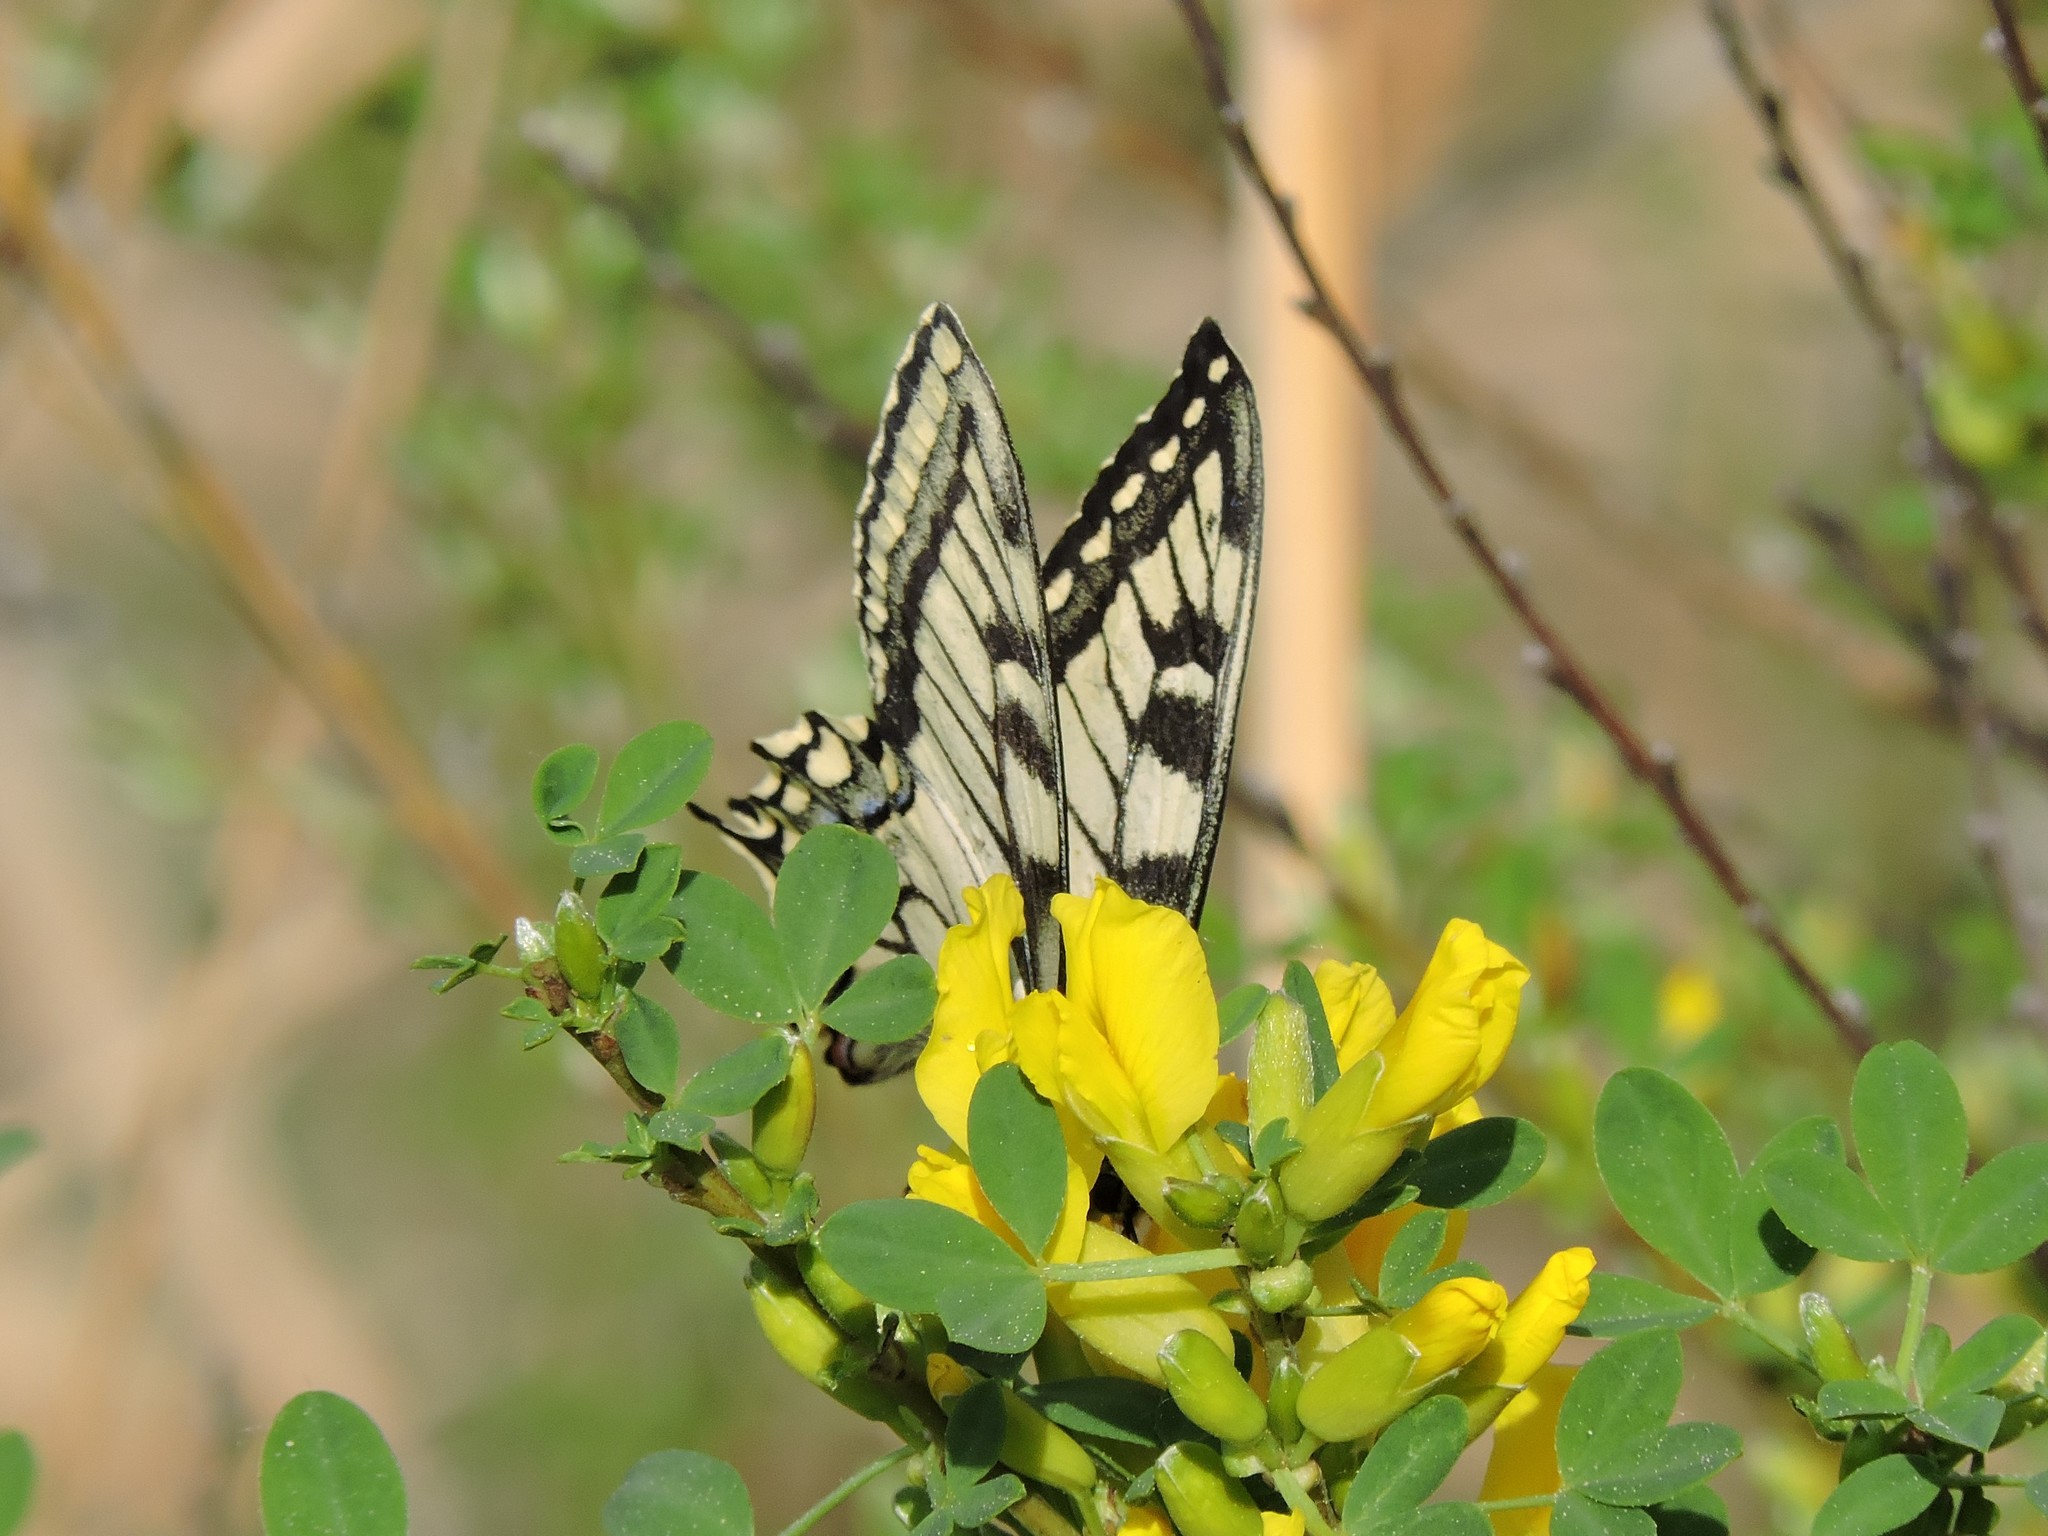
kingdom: Animalia
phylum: Arthropoda
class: Insecta
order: Lepidoptera
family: Papilionidae
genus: Papilio
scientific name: Papilio machaon
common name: Swallowtail
